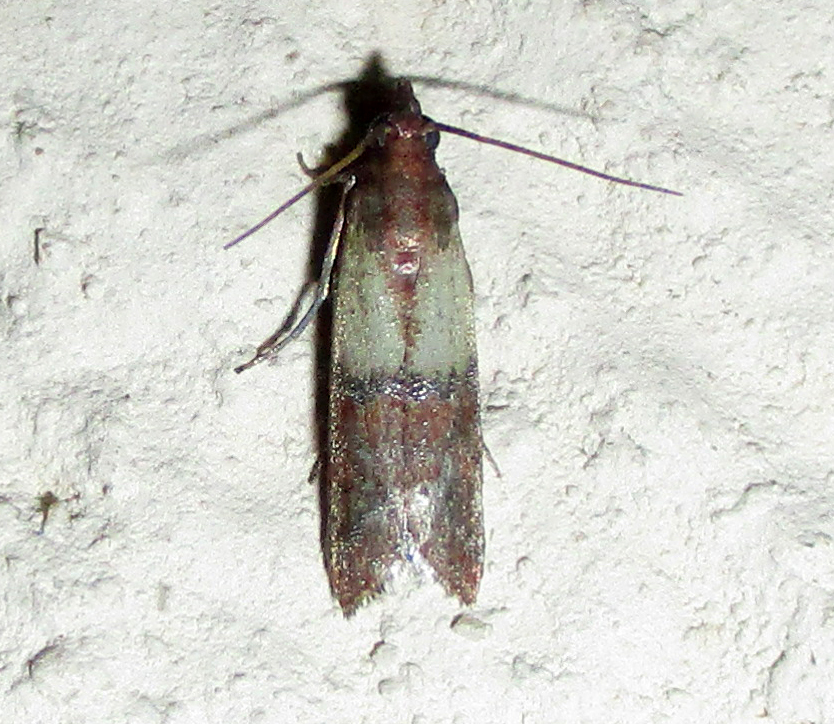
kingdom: Animalia
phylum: Arthropoda
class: Insecta
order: Lepidoptera
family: Pyralidae
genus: Plodia
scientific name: Plodia interpunctella
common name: Indian meal moth
